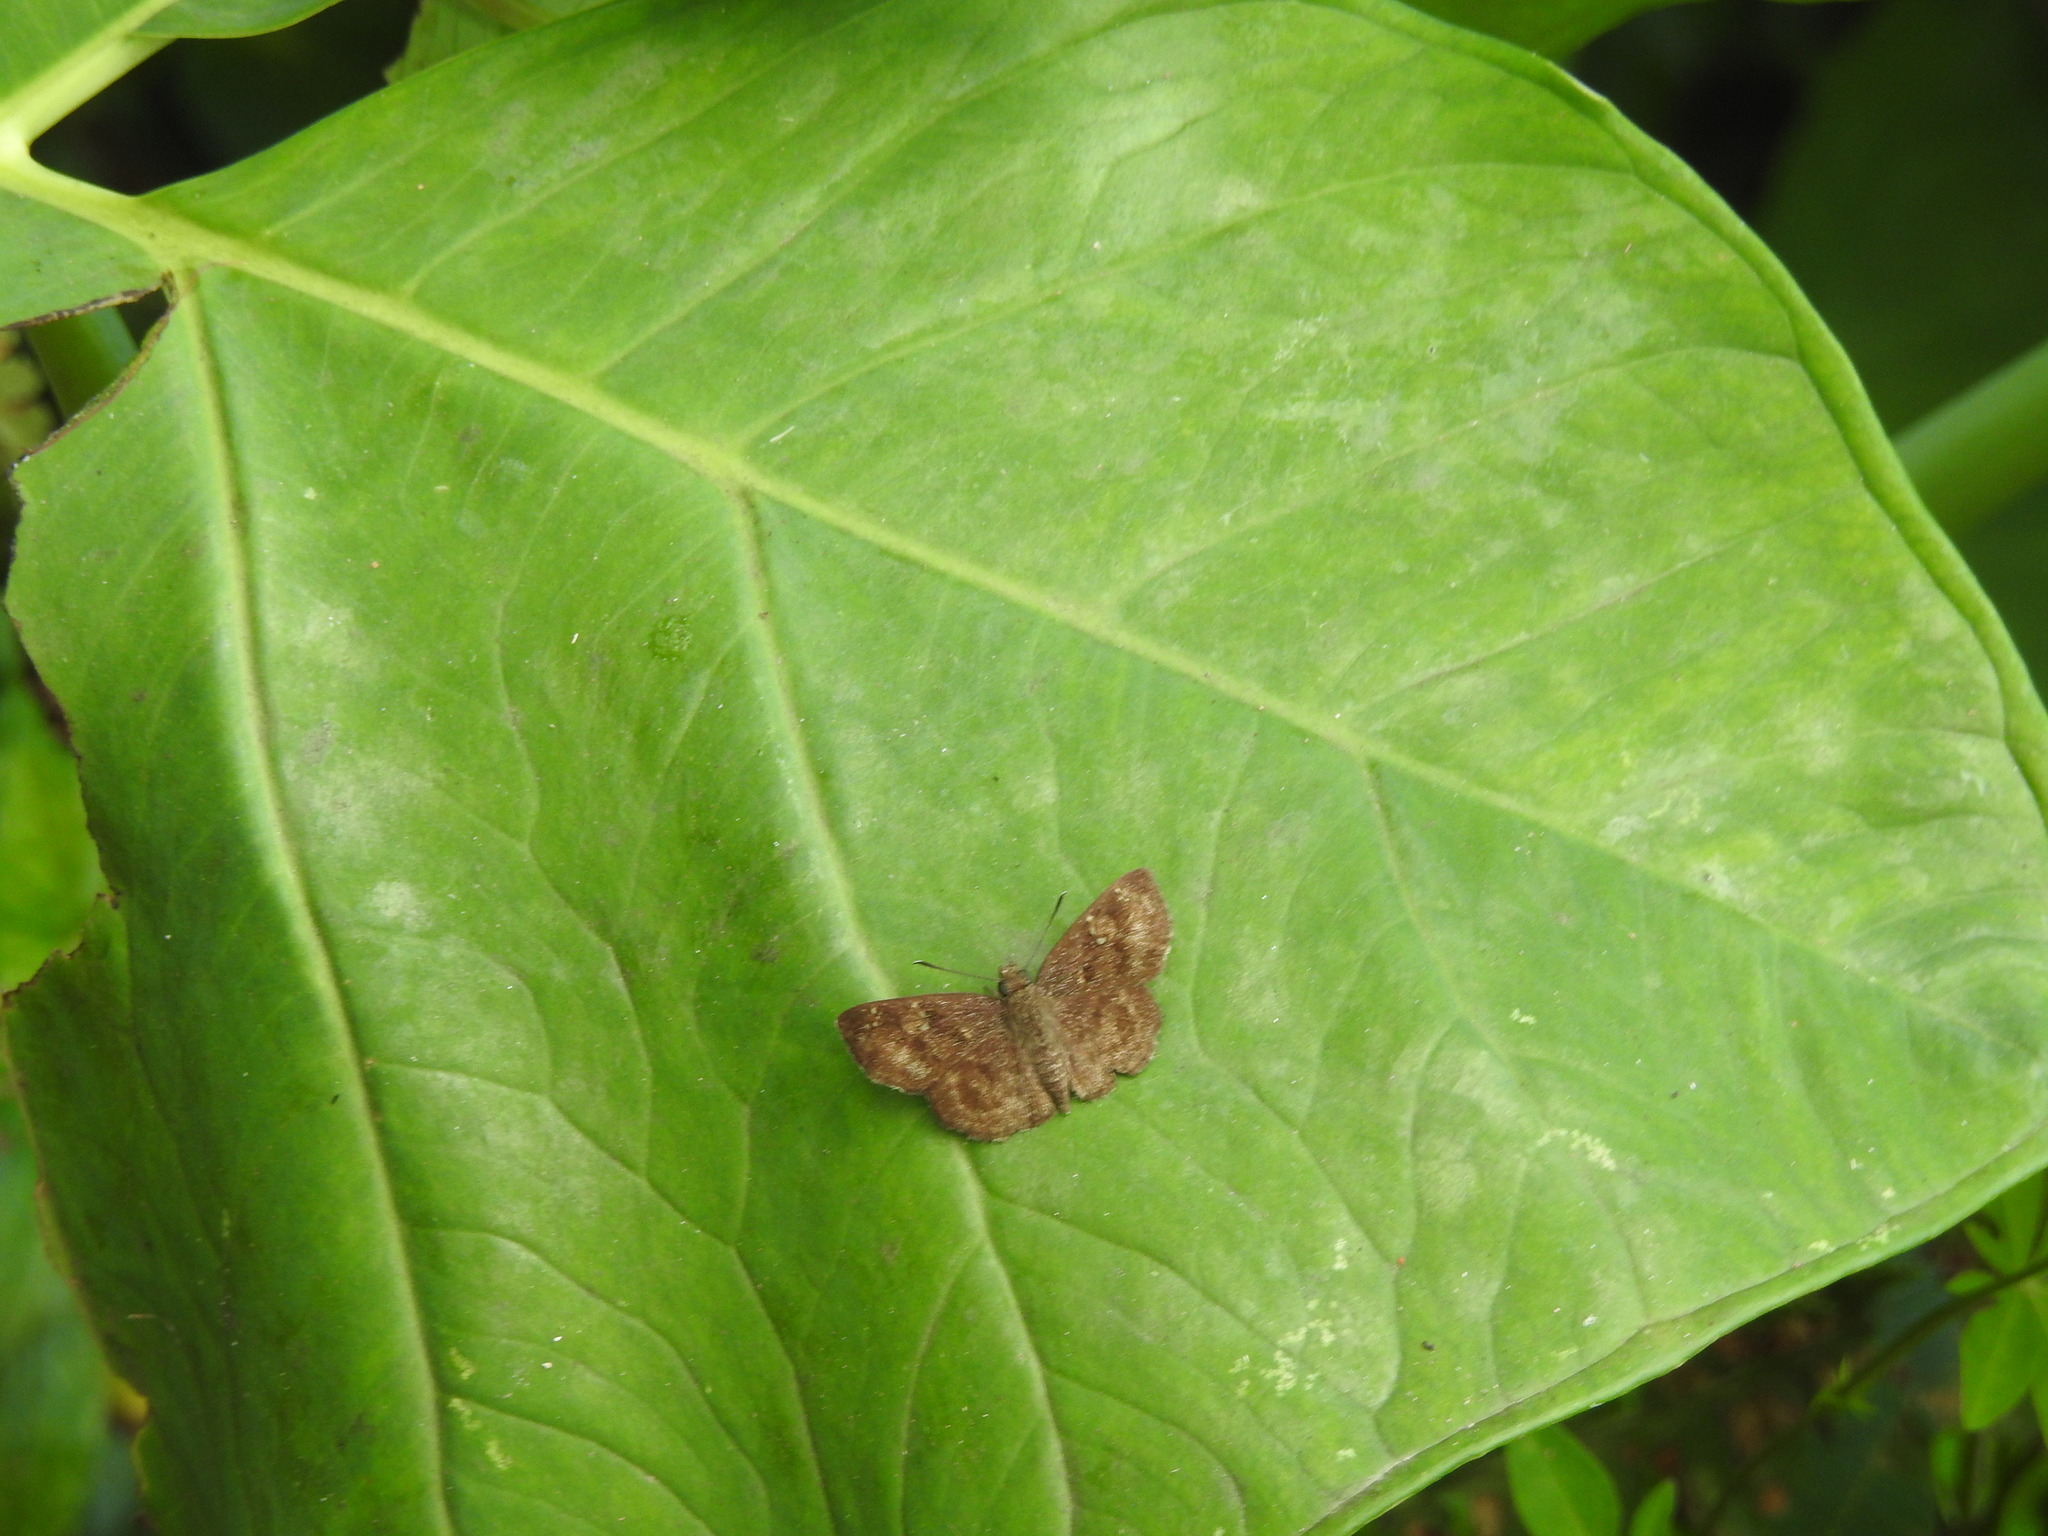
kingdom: Animalia
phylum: Arthropoda
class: Insecta
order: Lepidoptera
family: Hesperiidae
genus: Sarangesa
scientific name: Sarangesa dasahara
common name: Common small flat
